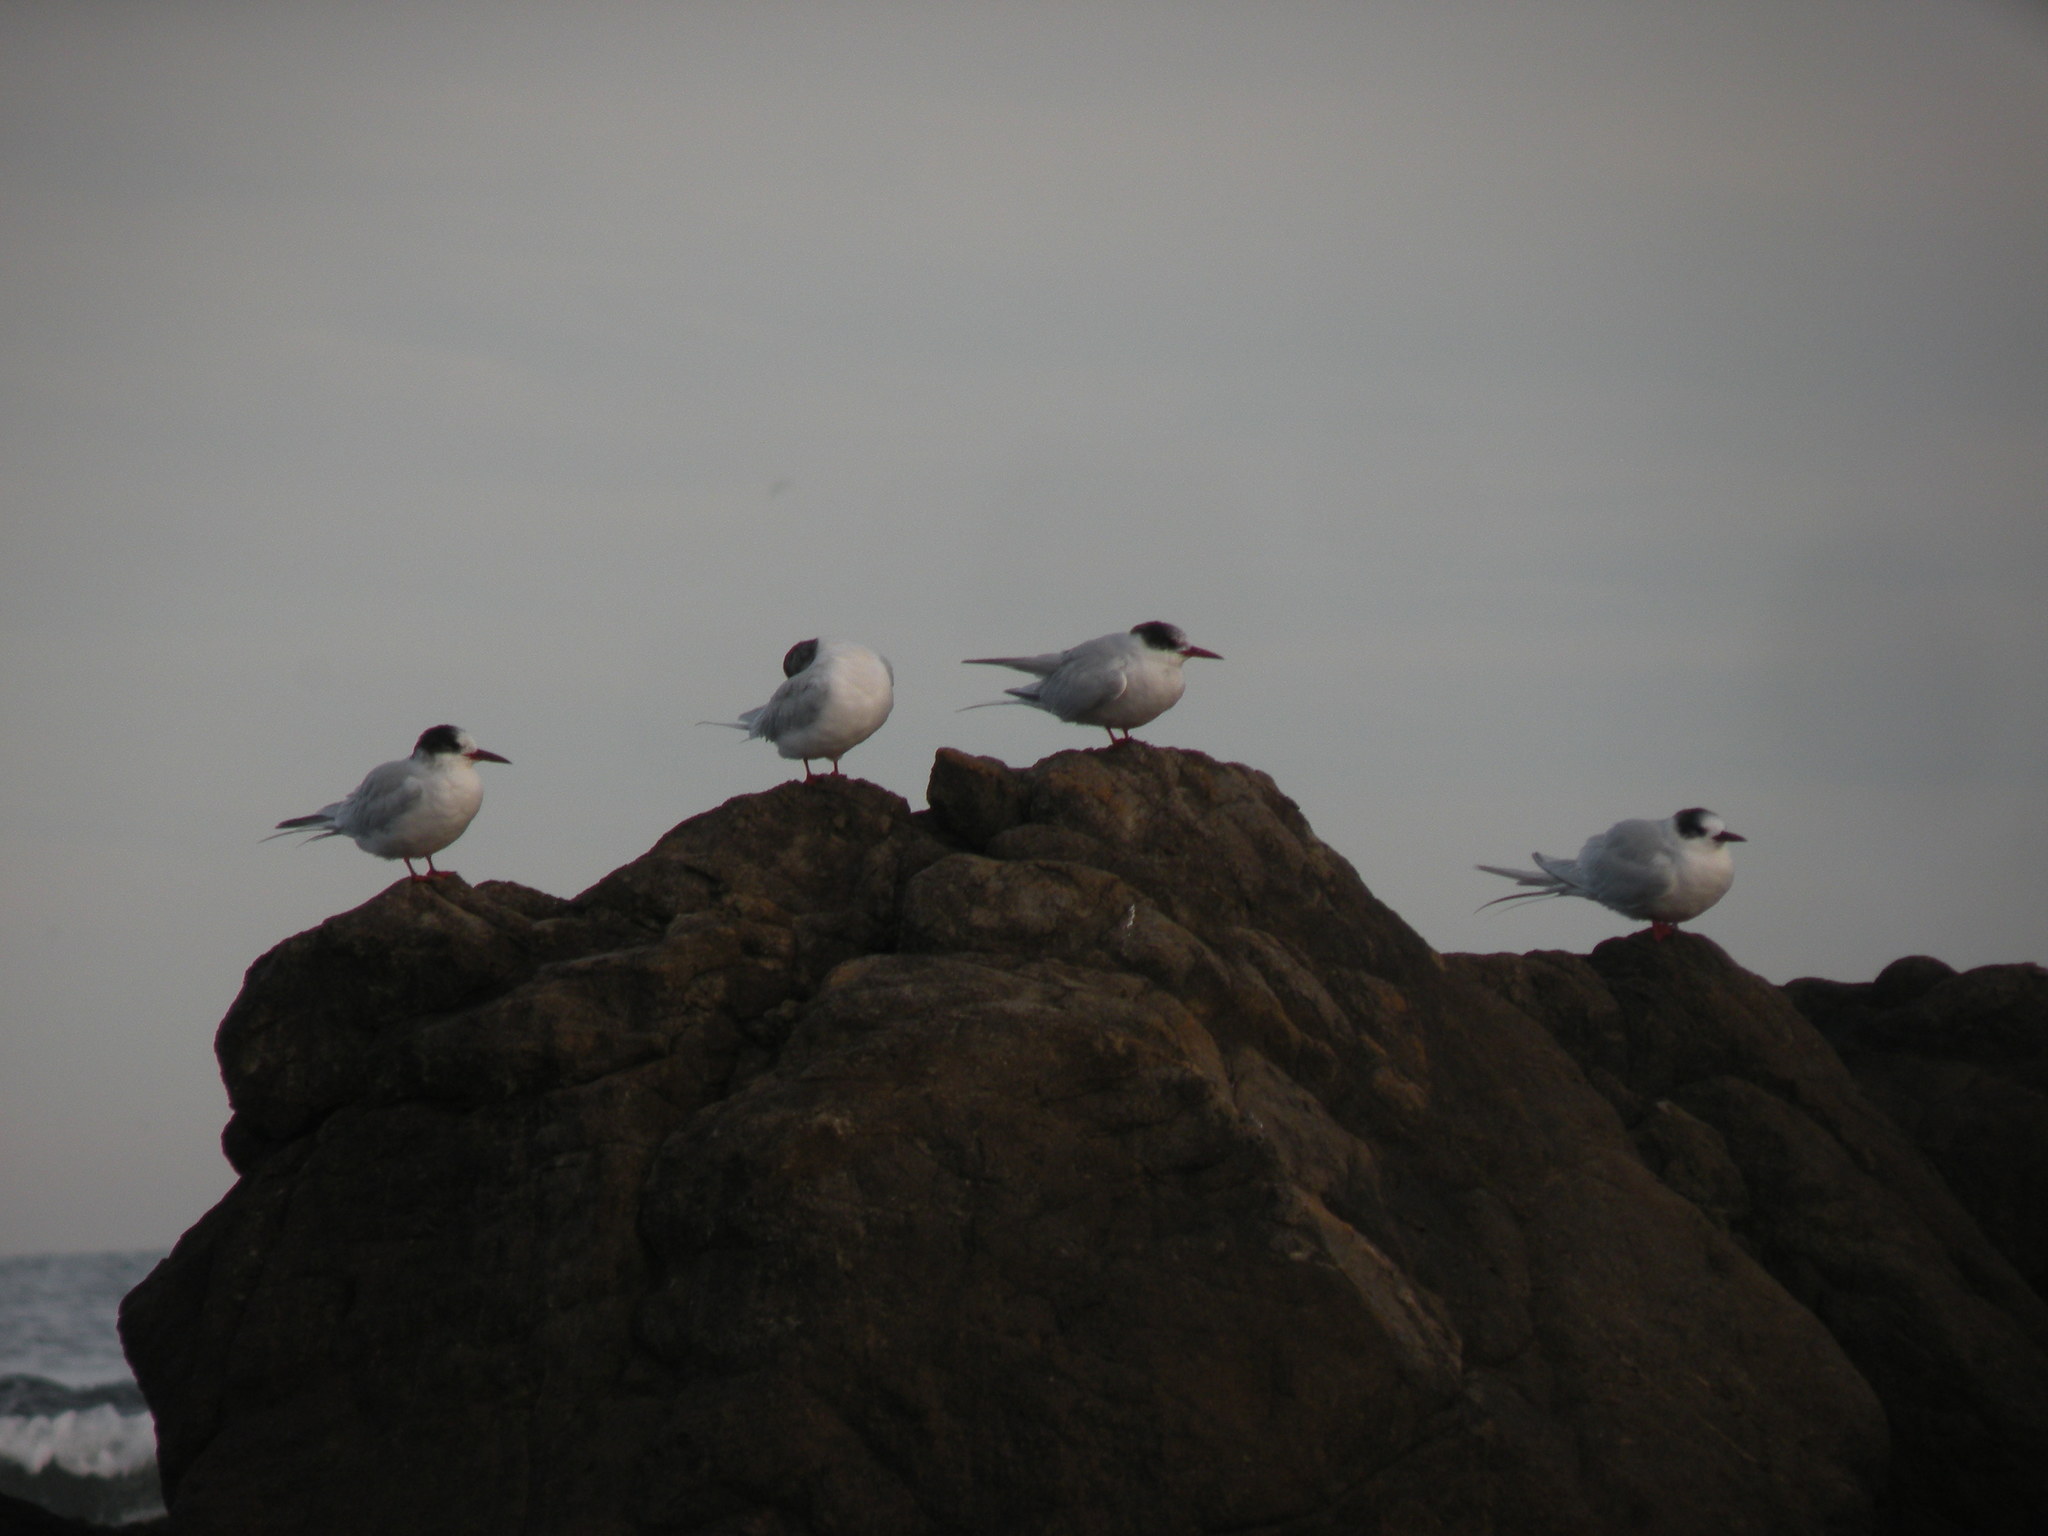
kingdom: Animalia
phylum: Chordata
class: Aves
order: Charadriiformes
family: Laridae
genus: Sterna
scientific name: Sterna hirundinacea
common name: South american tern
